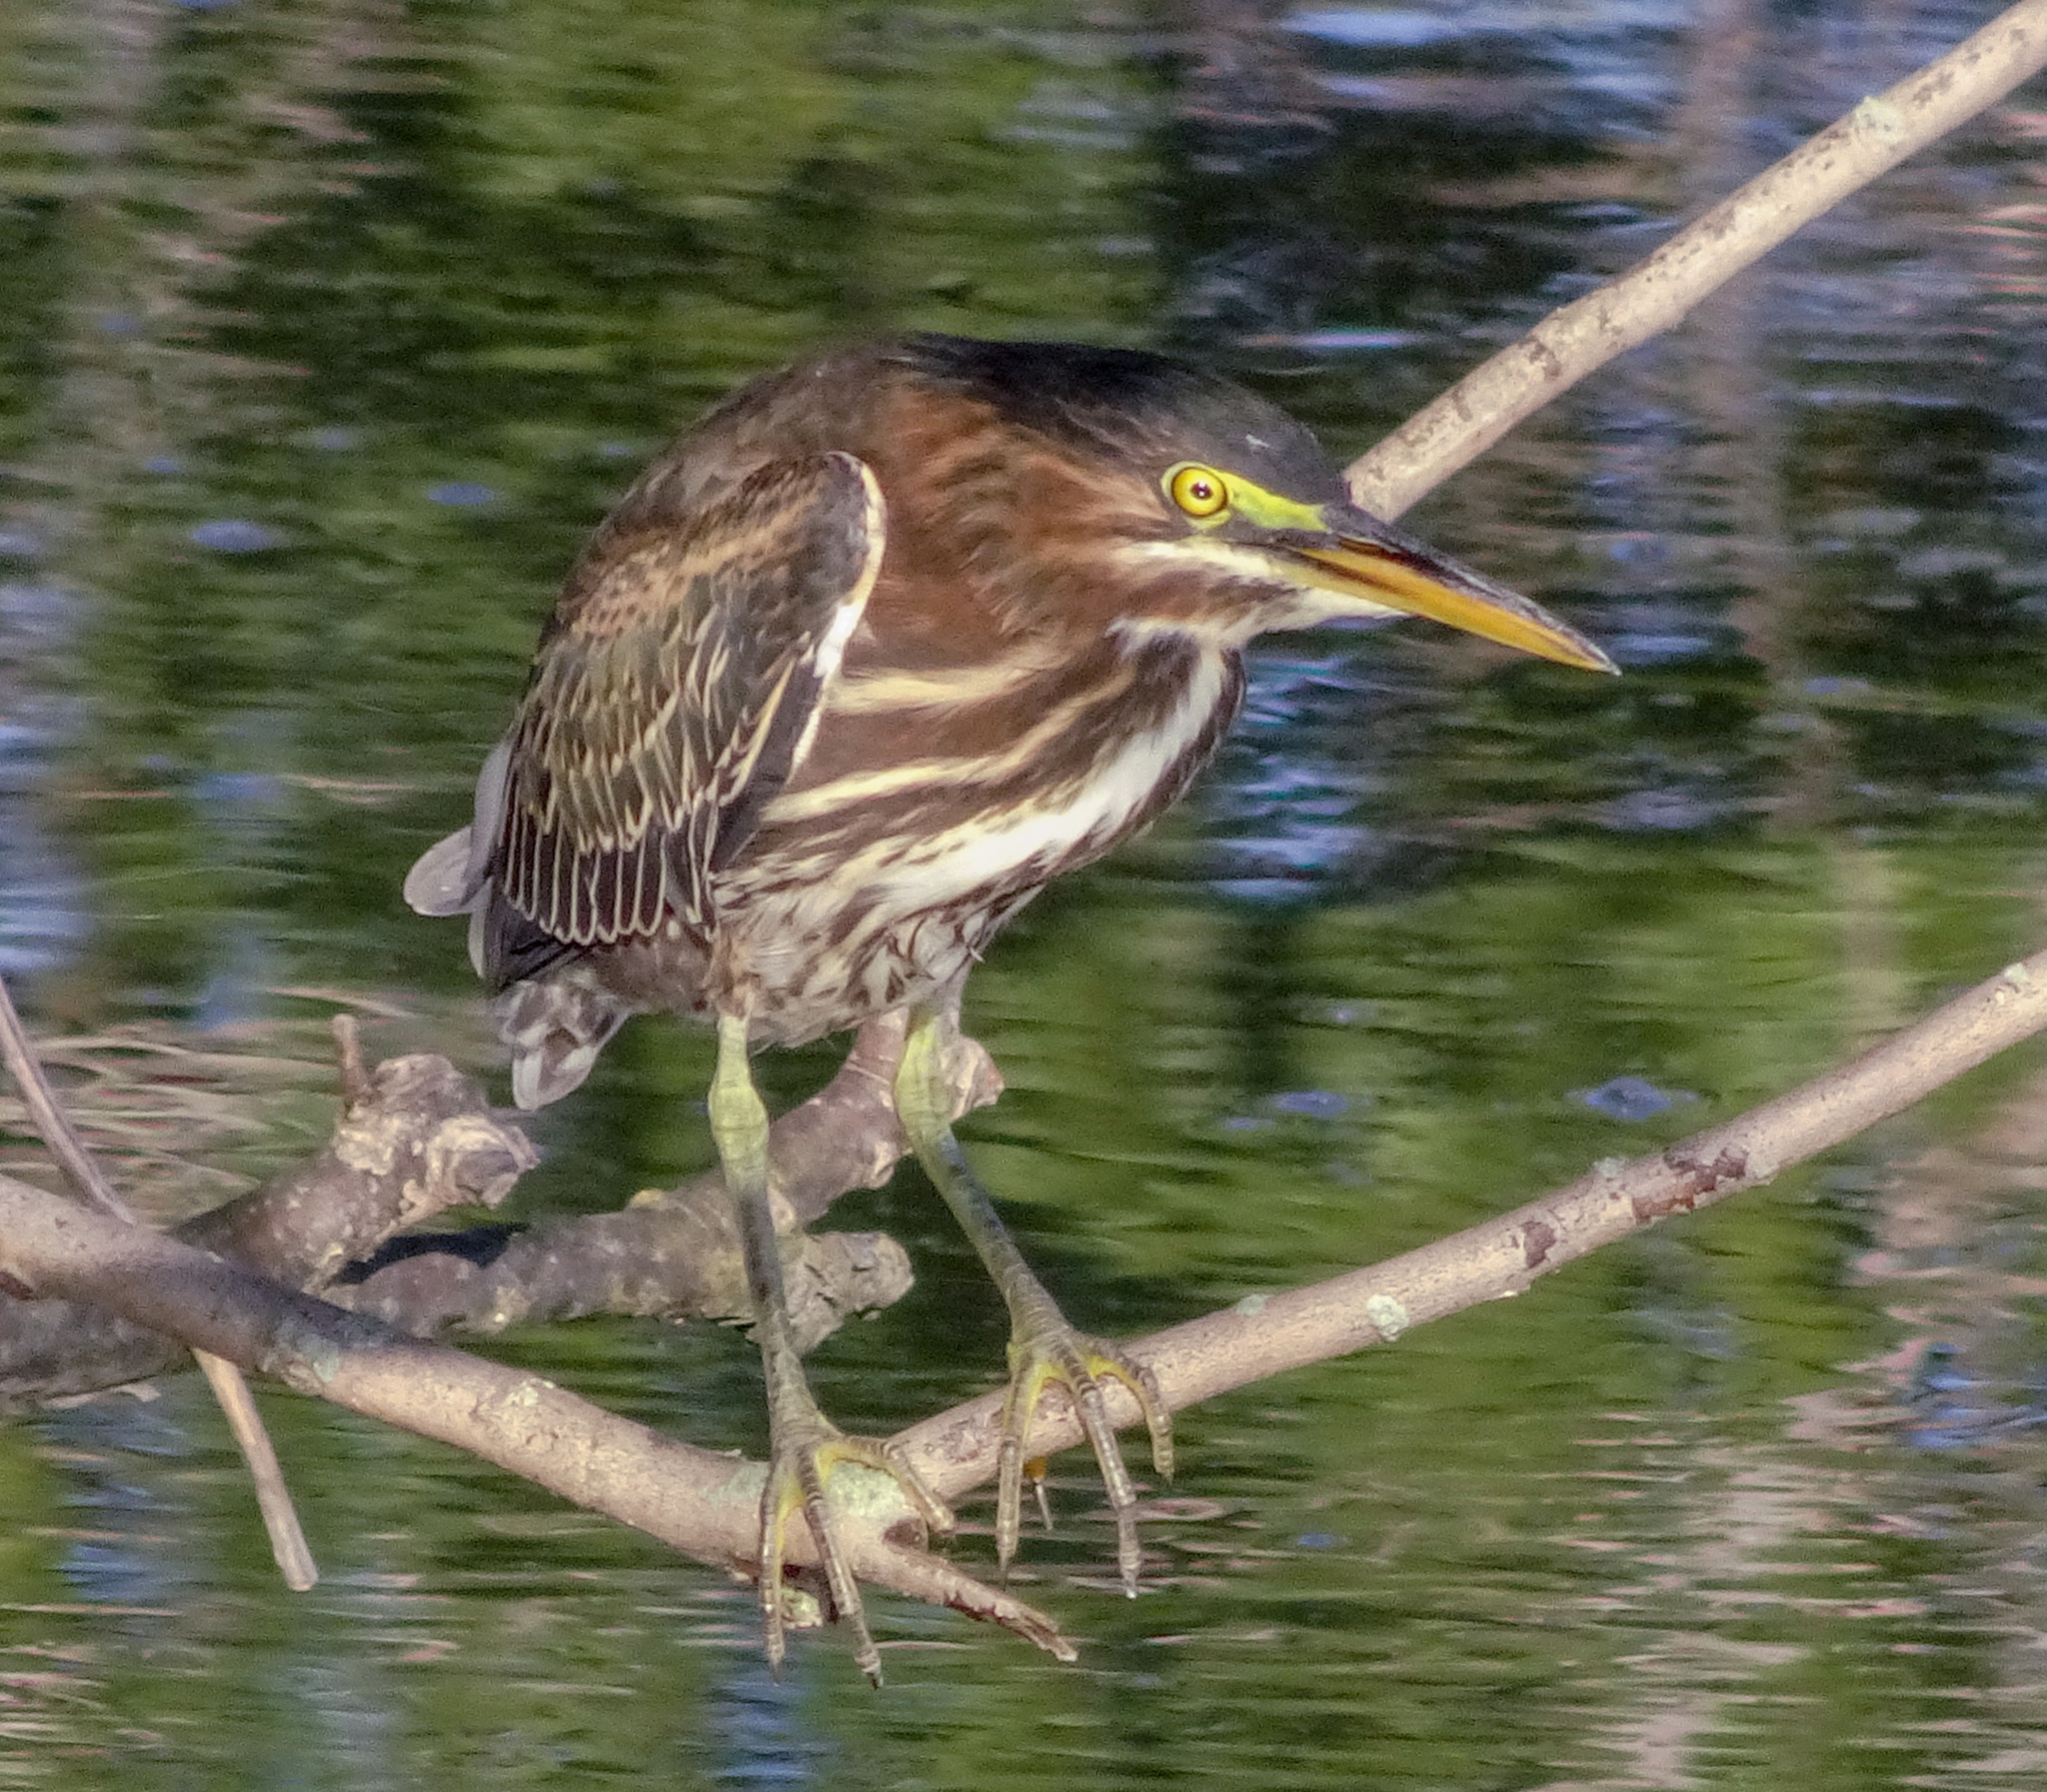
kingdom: Animalia
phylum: Chordata
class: Aves
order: Pelecaniformes
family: Ardeidae
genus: Butorides
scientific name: Butorides virescens
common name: Green heron
